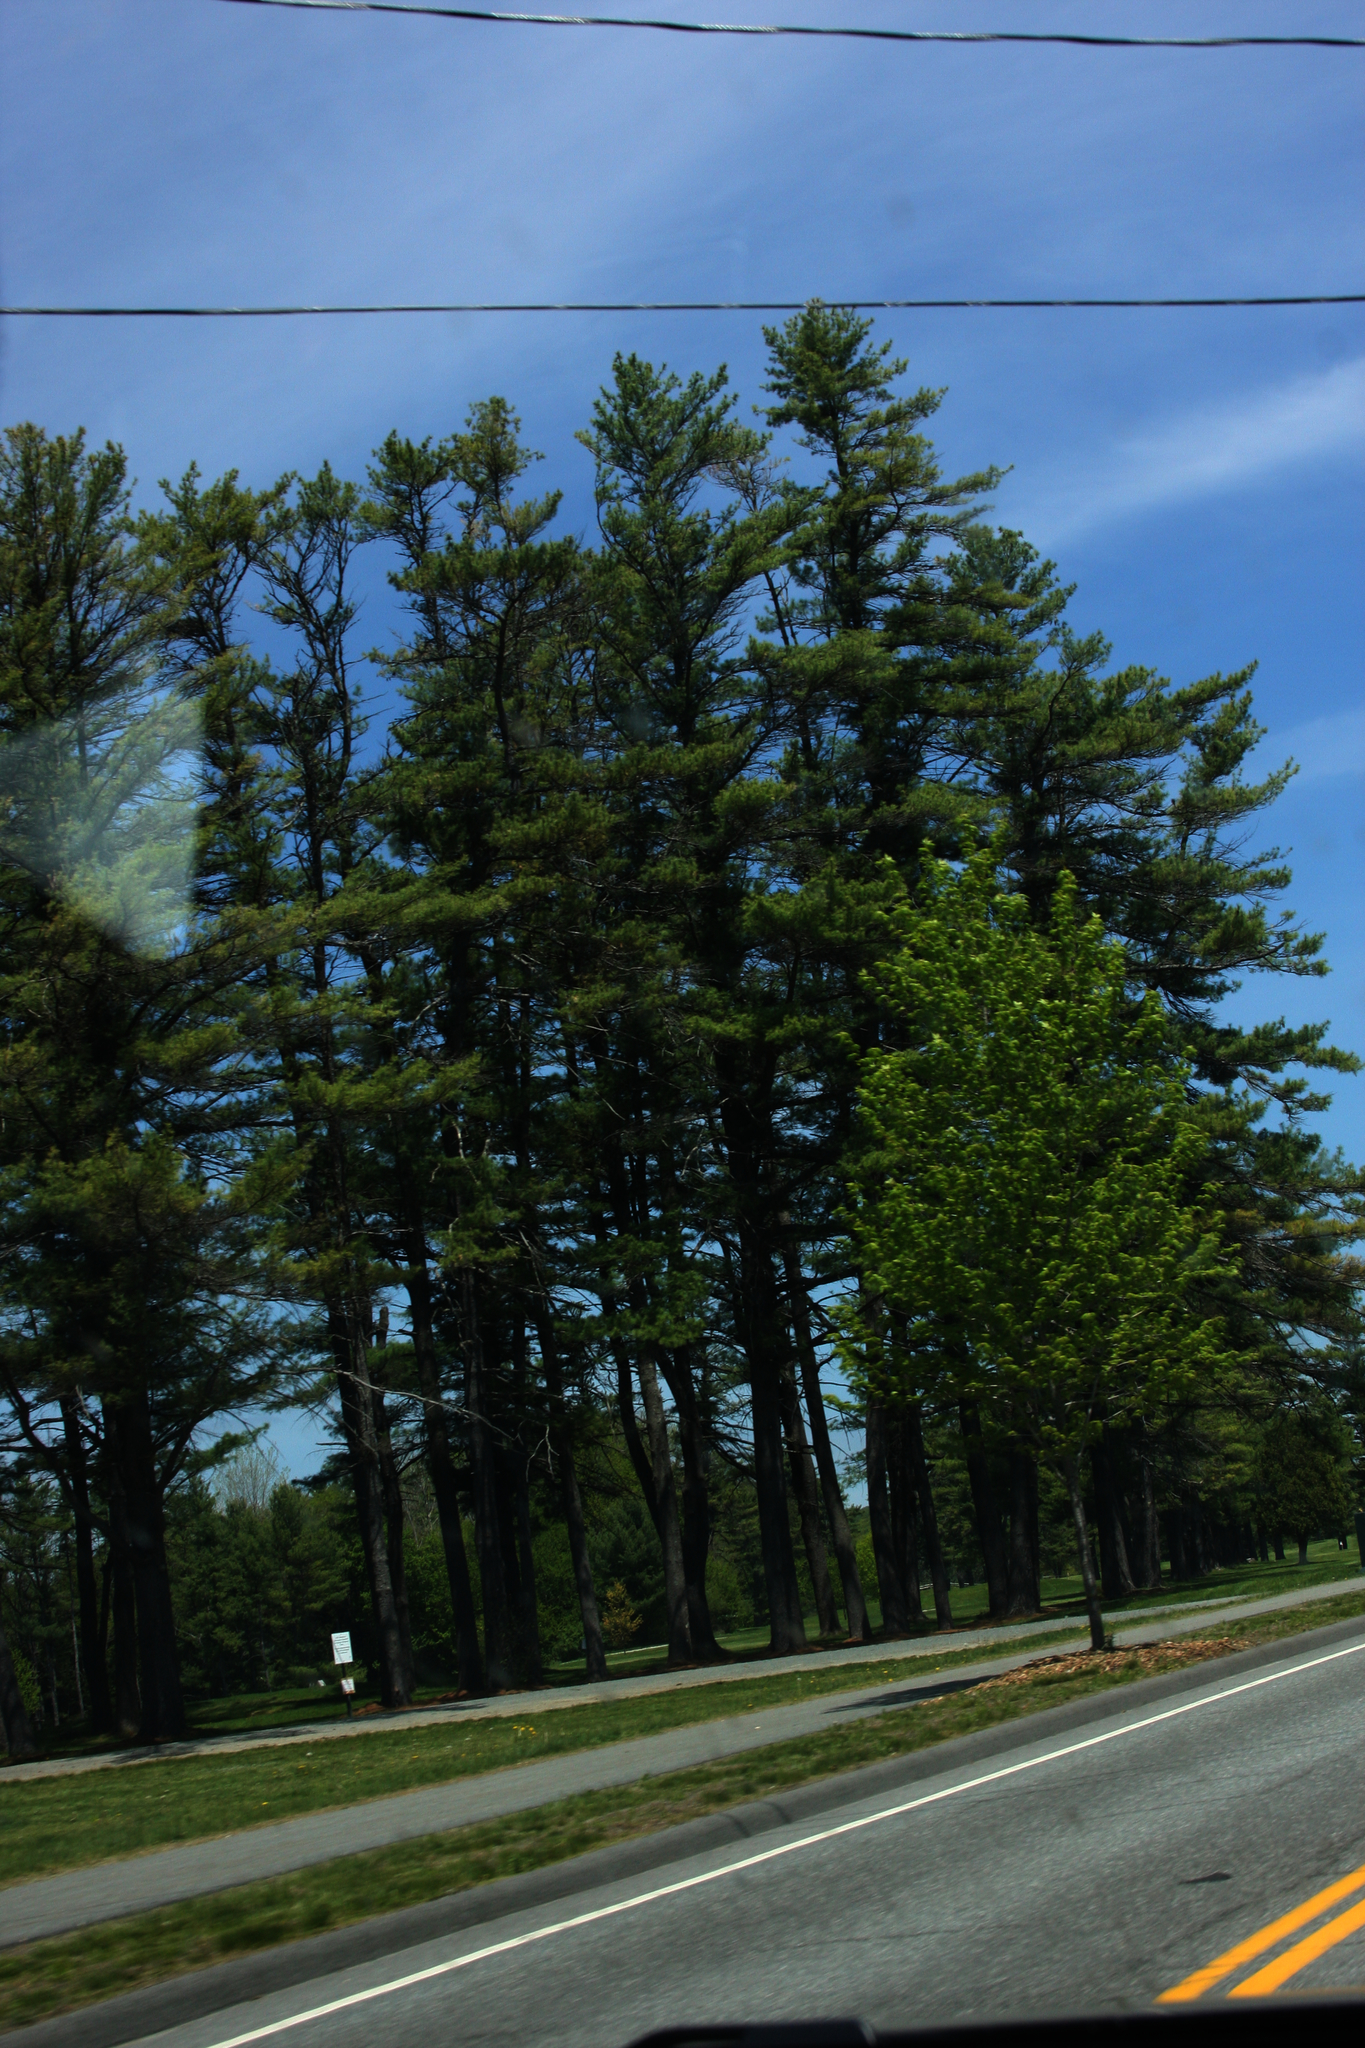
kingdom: Plantae
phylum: Tracheophyta
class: Pinopsida
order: Pinales
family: Pinaceae
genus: Pinus
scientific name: Pinus strobus
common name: Weymouth pine
